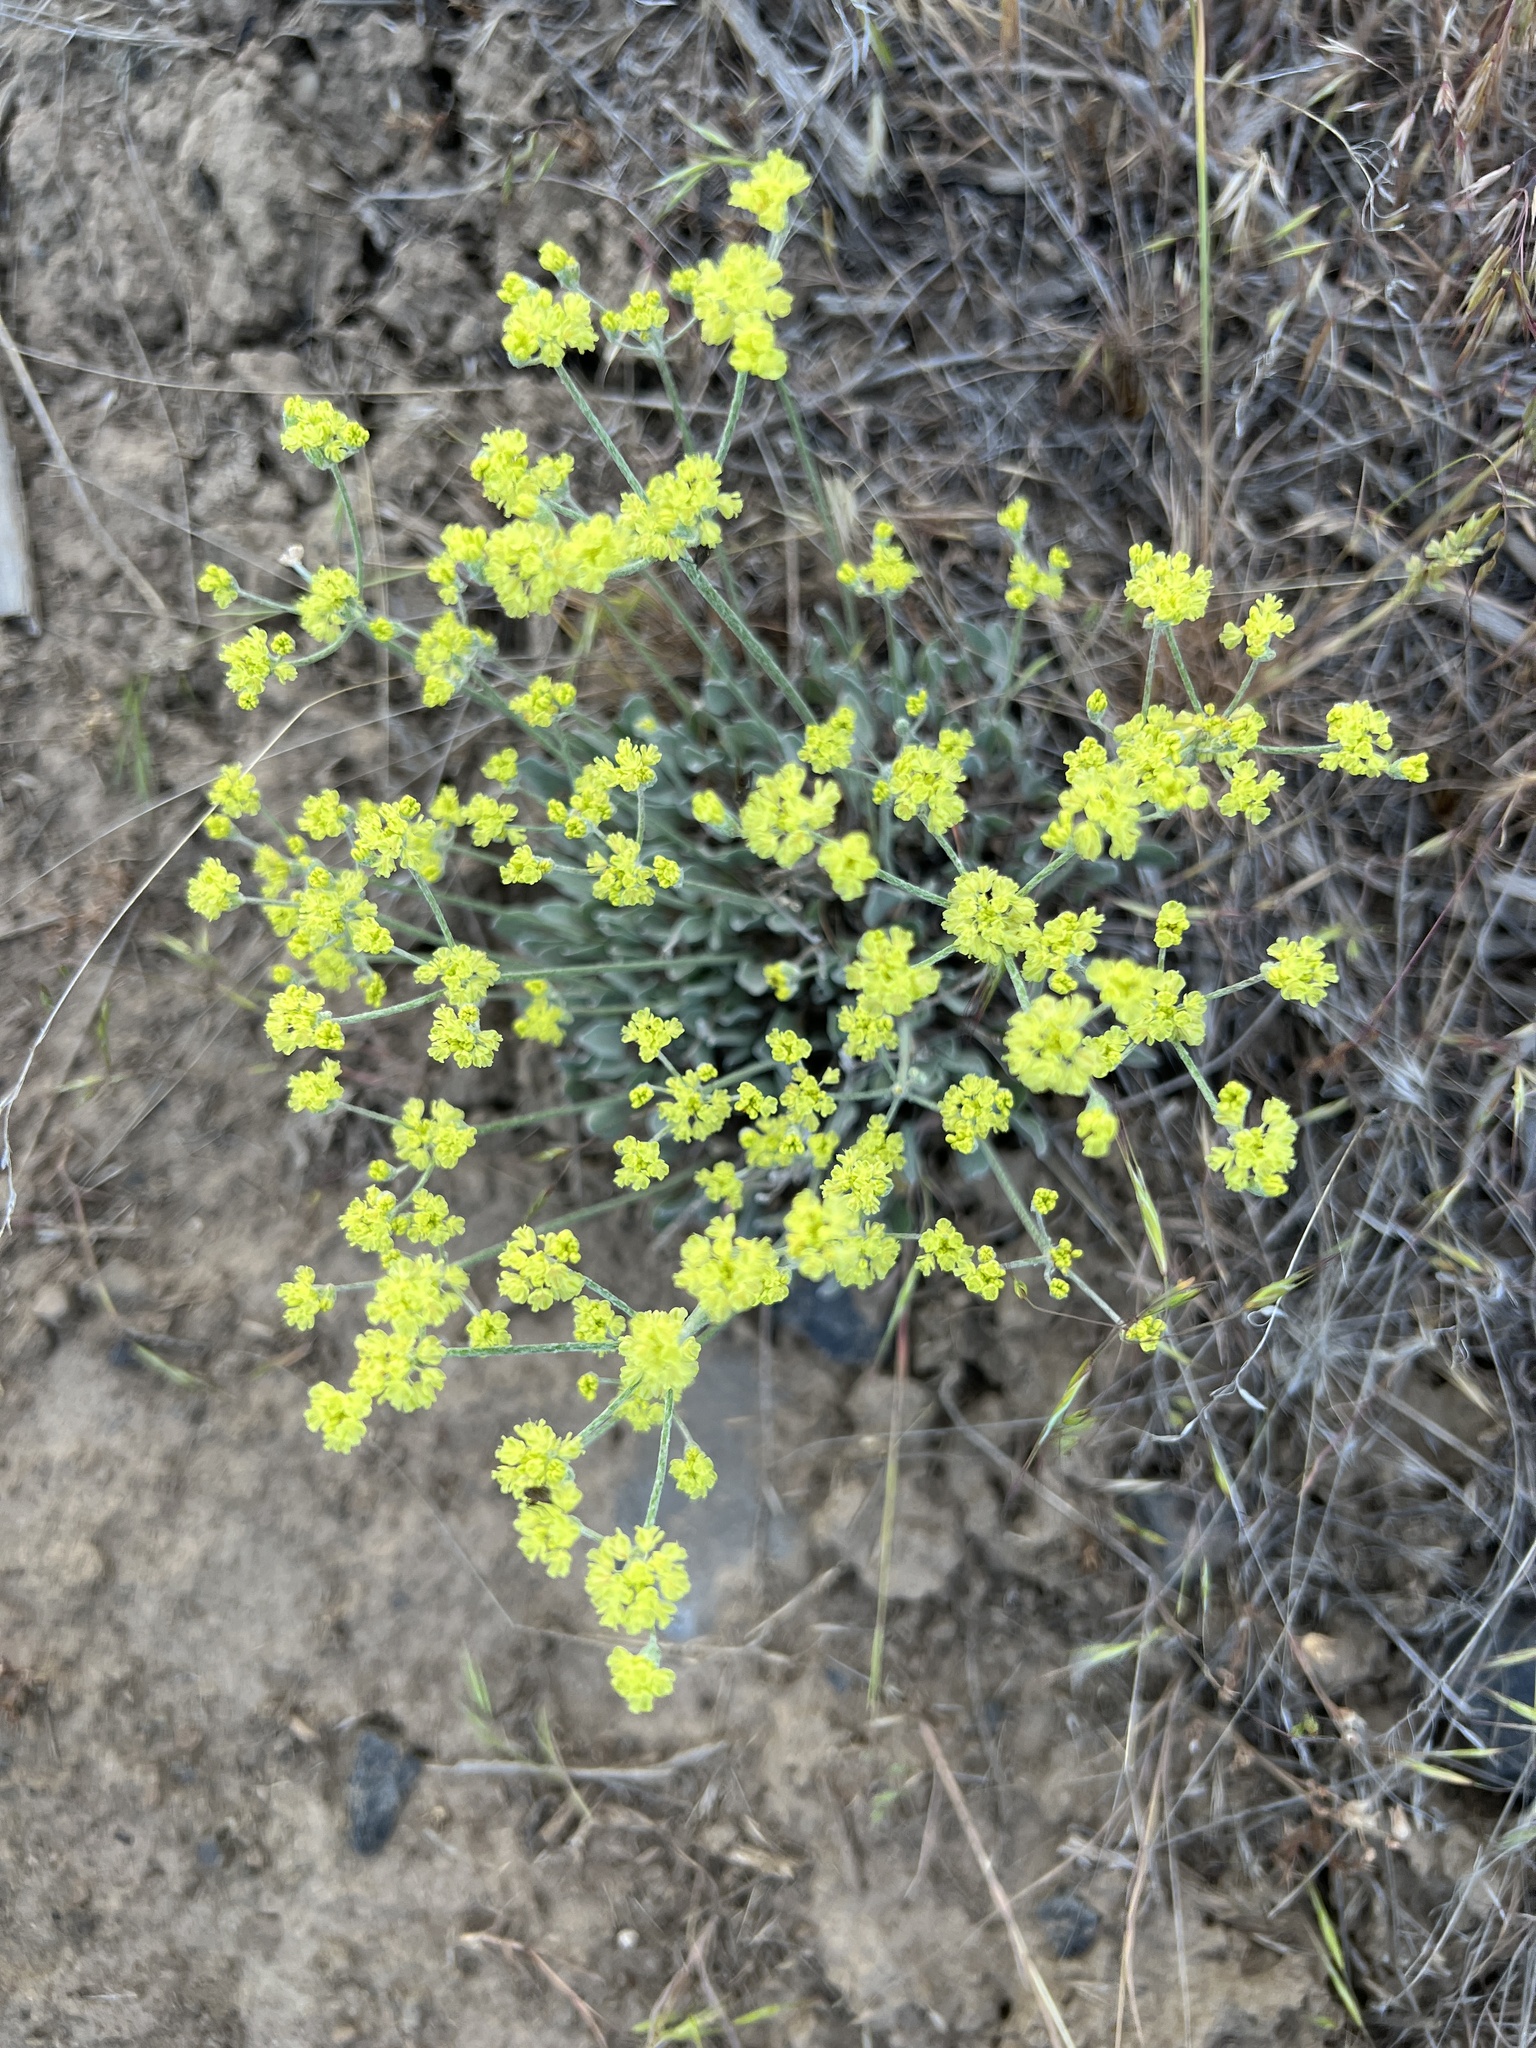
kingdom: Plantae
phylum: Tracheophyta
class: Magnoliopsida
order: Caryophyllales
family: Polygonaceae
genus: Eriogonum
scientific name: Eriogonum strictum
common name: Blue mountain buckwheat
